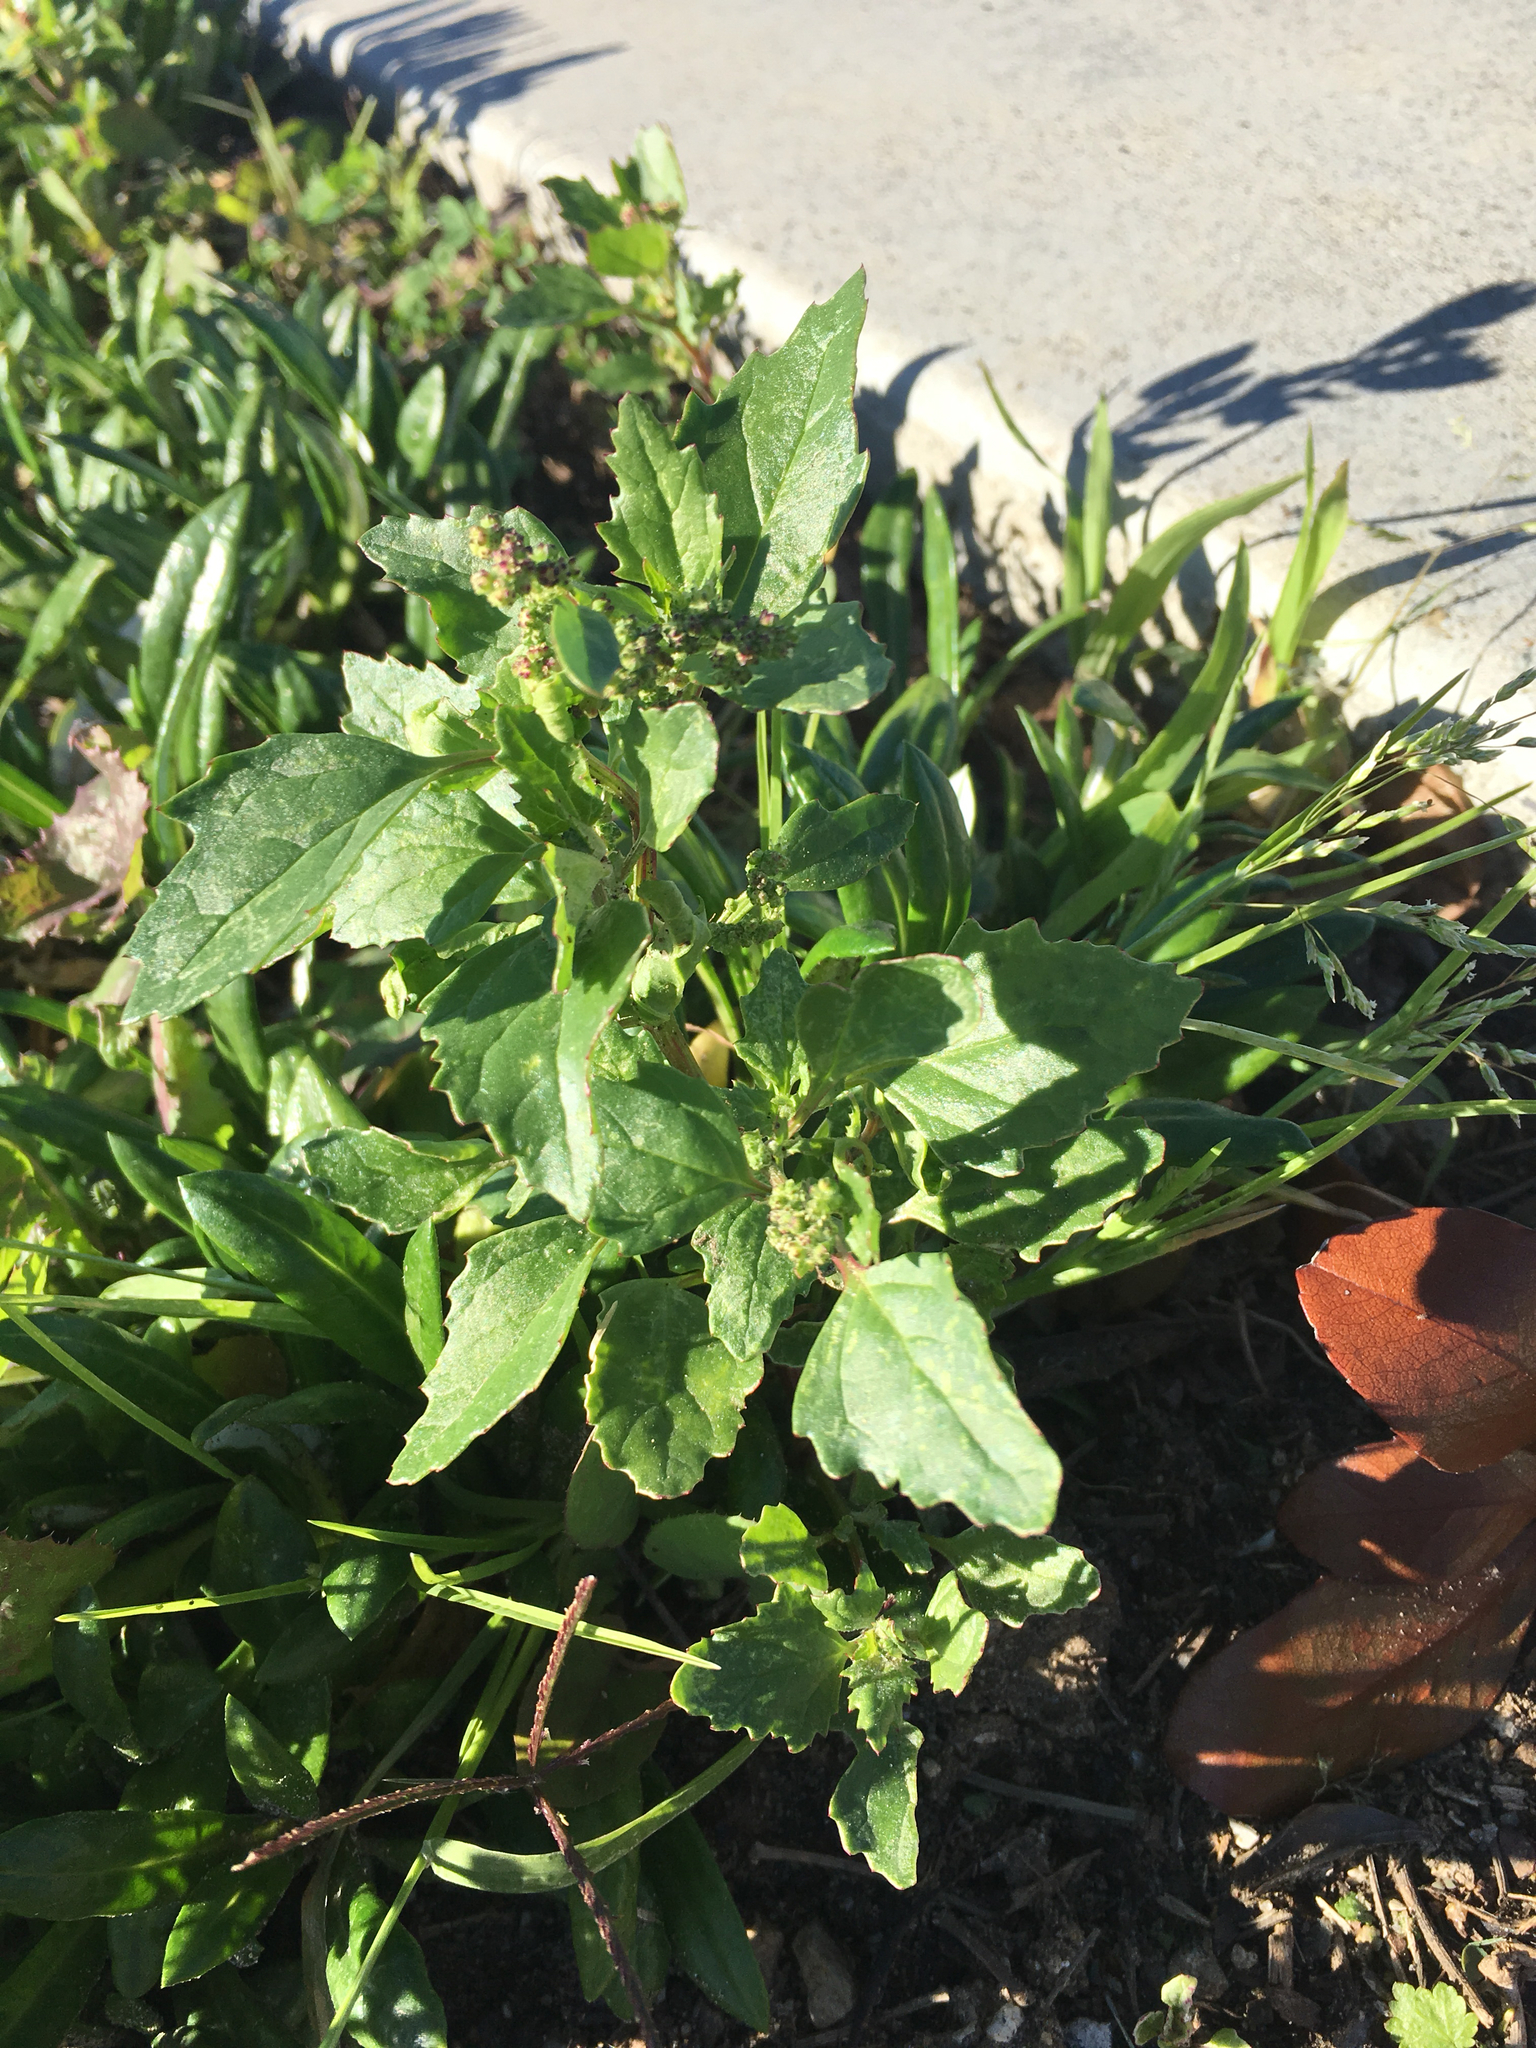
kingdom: Plantae
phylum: Tracheophyta
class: Magnoliopsida
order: Caryophyllales
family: Amaranthaceae
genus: Chenopodiastrum
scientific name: Chenopodiastrum murale
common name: Sowbane
